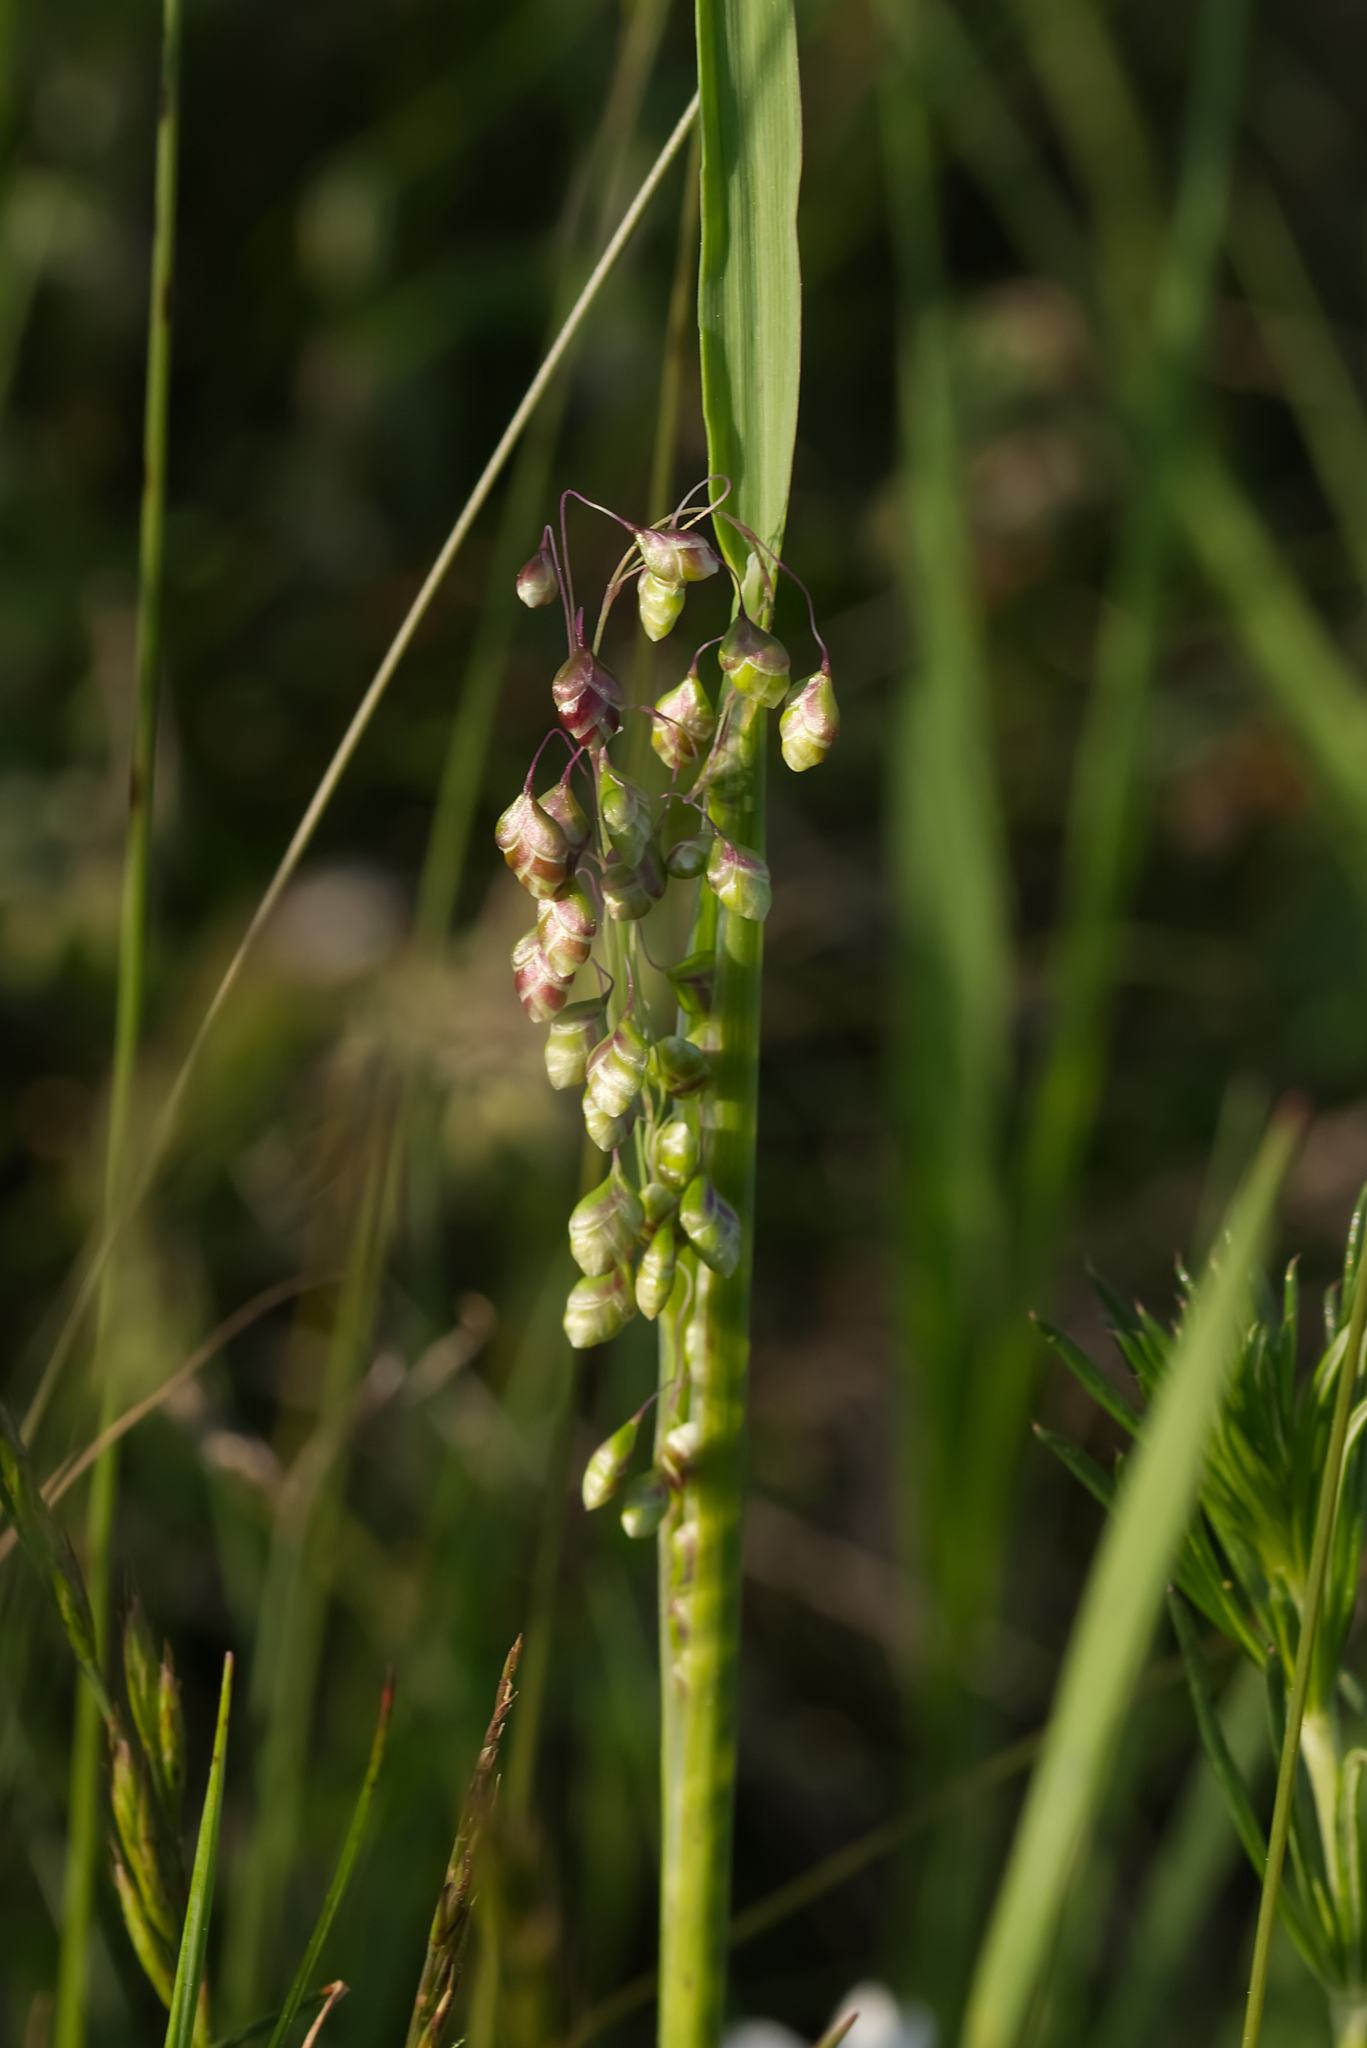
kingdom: Plantae
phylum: Tracheophyta
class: Liliopsida
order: Poales
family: Poaceae
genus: Briza
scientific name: Briza media
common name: Quaking grass
